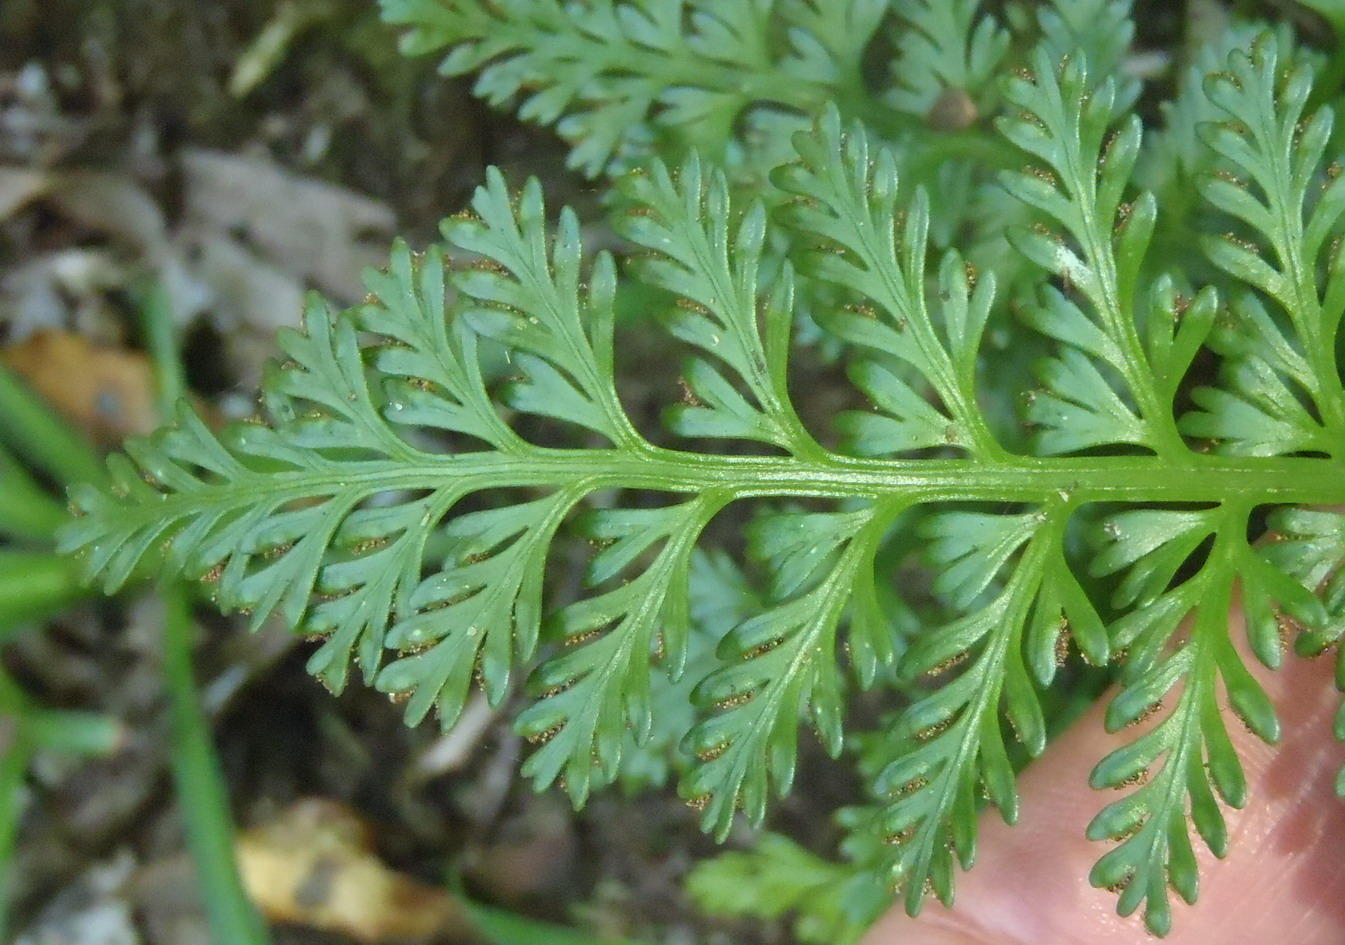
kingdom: Plantae
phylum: Tracheophyta
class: Polypodiopsida
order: Polypodiales
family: Aspleniaceae
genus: Asplenium
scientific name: Asplenium rutifolium
